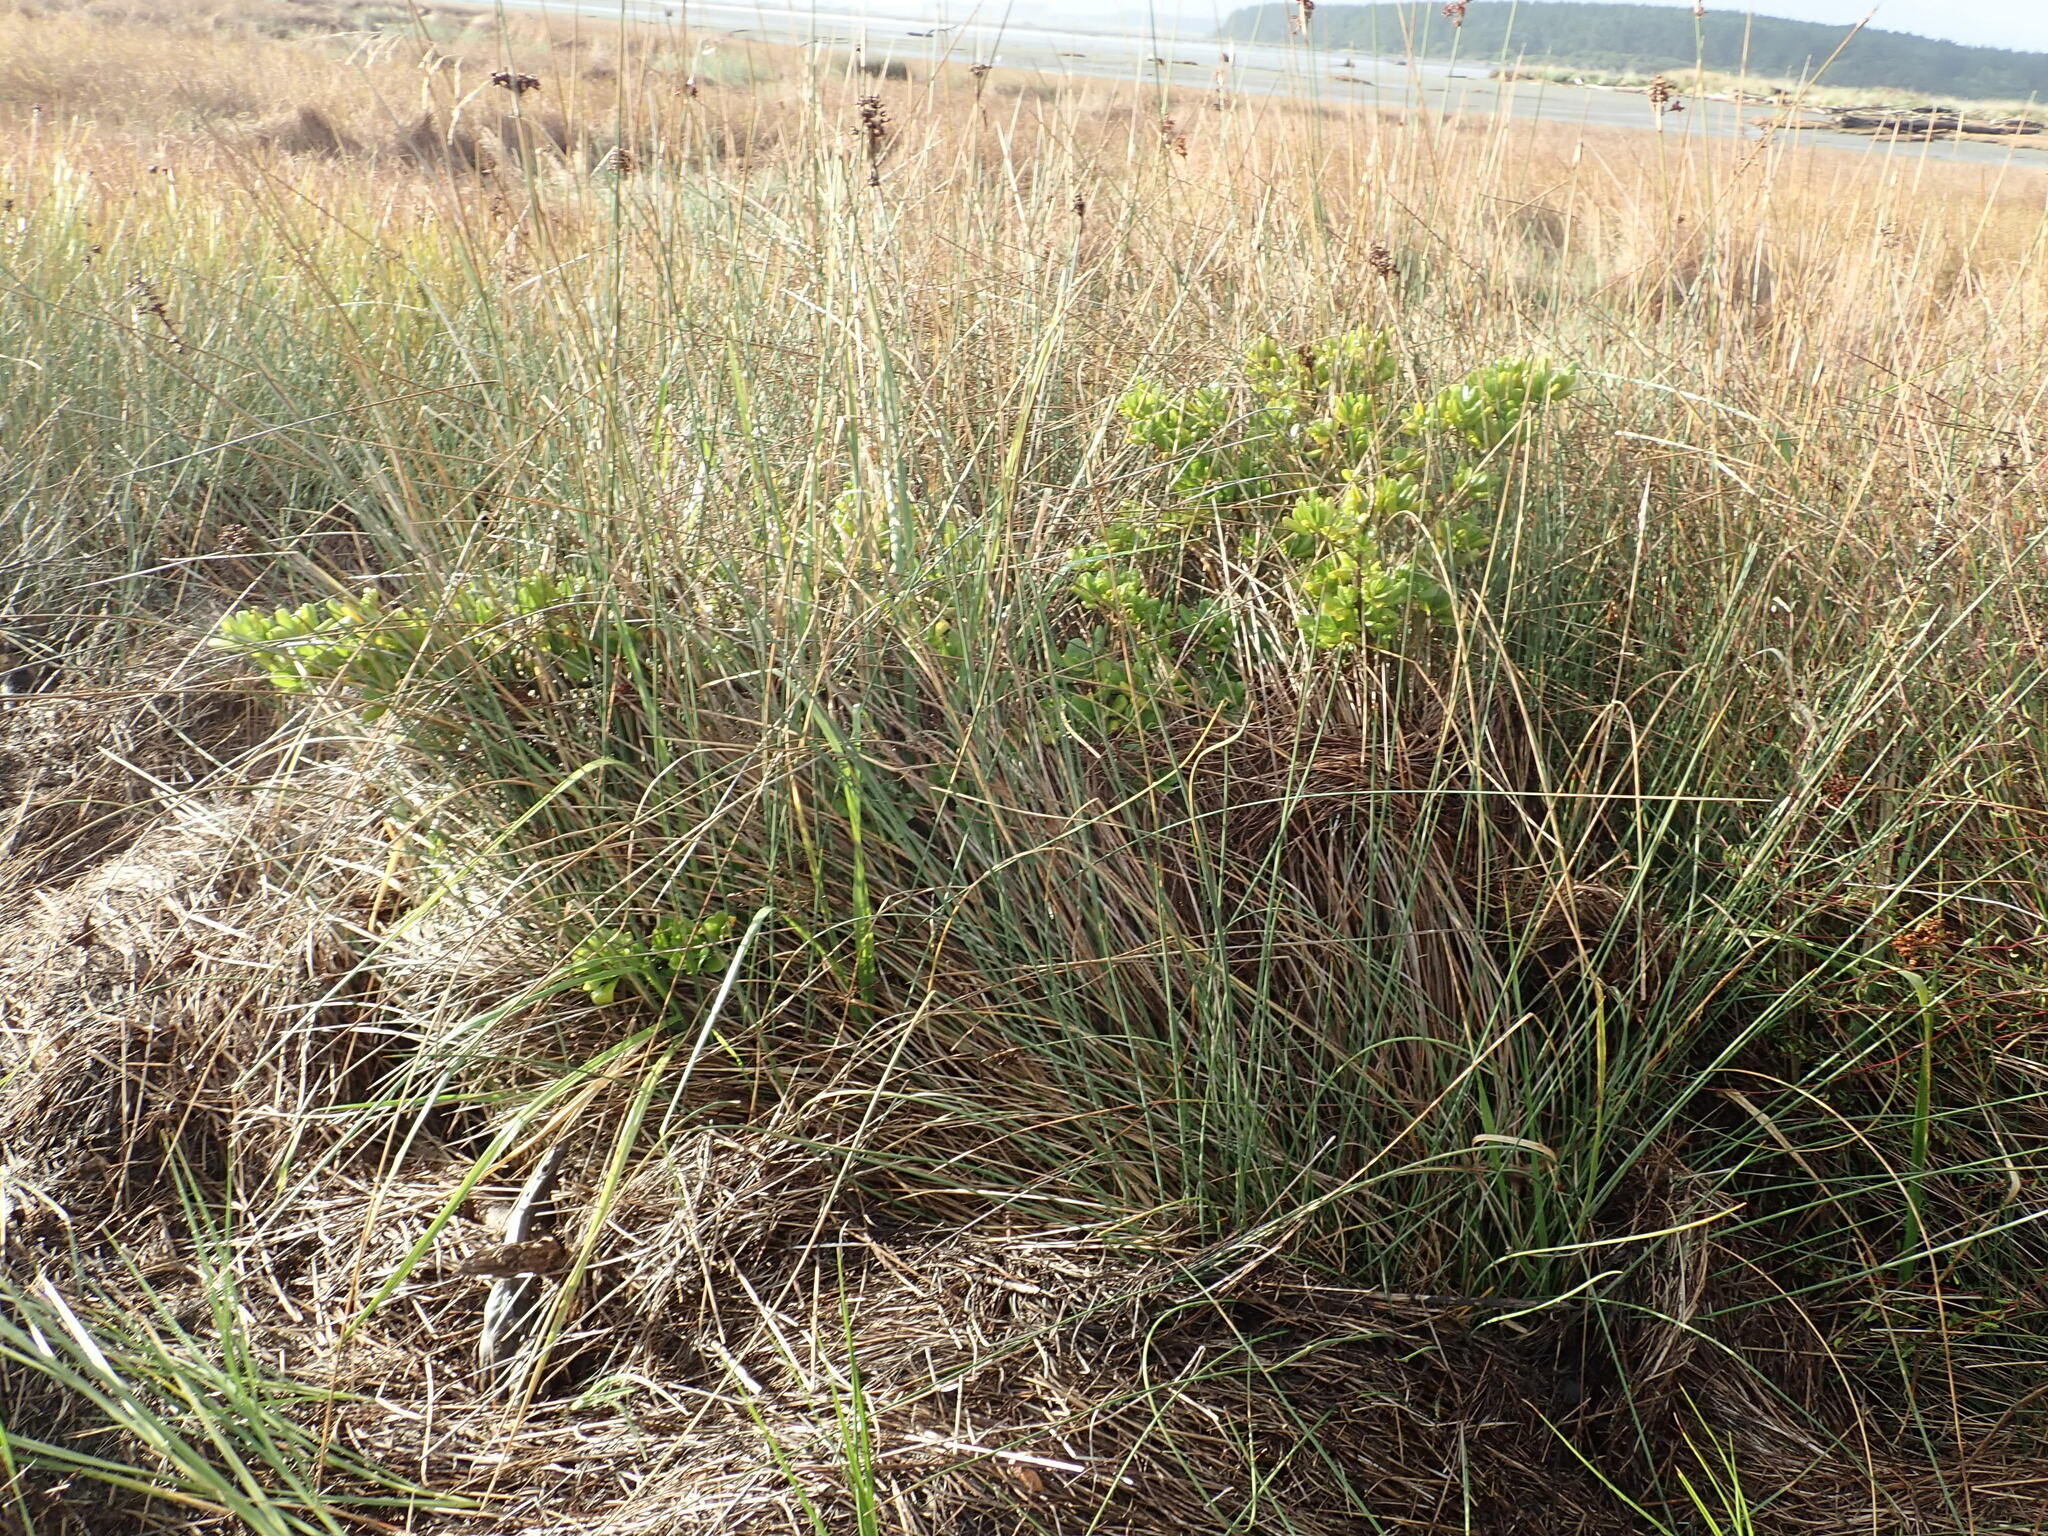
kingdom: Plantae
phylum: Tracheophyta
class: Magnoliopsida
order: Gentianales
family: Rubiaceae
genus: Coprosma
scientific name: Coprosma repens
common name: Tree bedstraw
